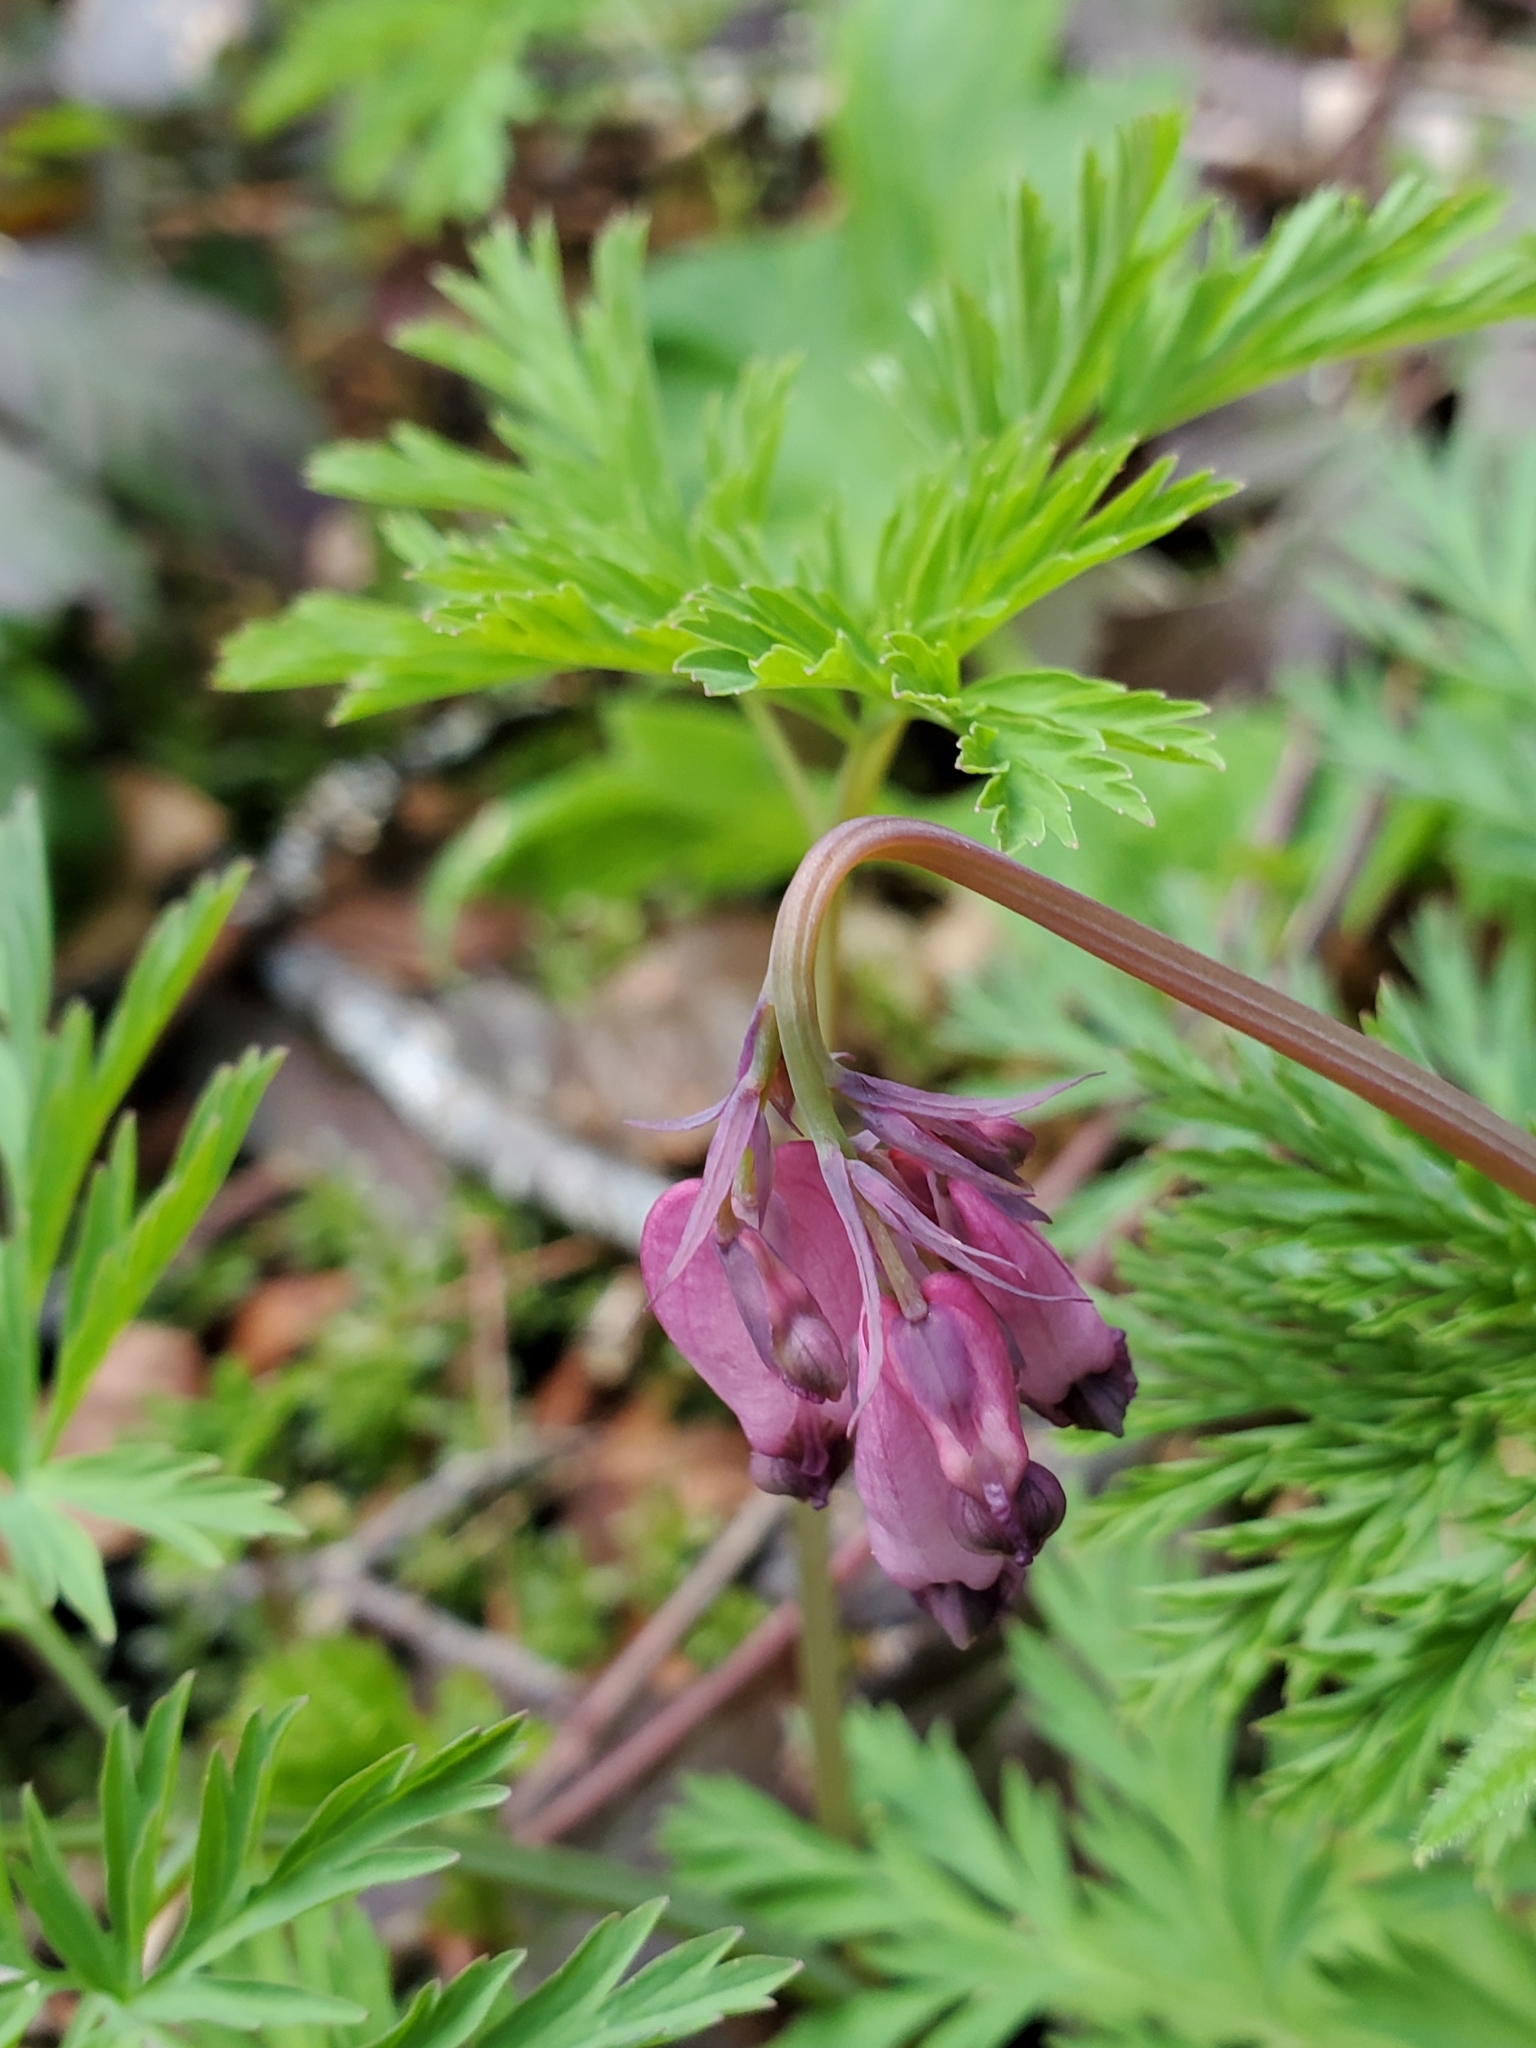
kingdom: Plantae
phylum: Tracheophyta
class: Magnoliopsida
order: Ranunculales
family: Papaveraceae
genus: Dicentra
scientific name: Dicentra formosa
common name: Bleeding-heart
